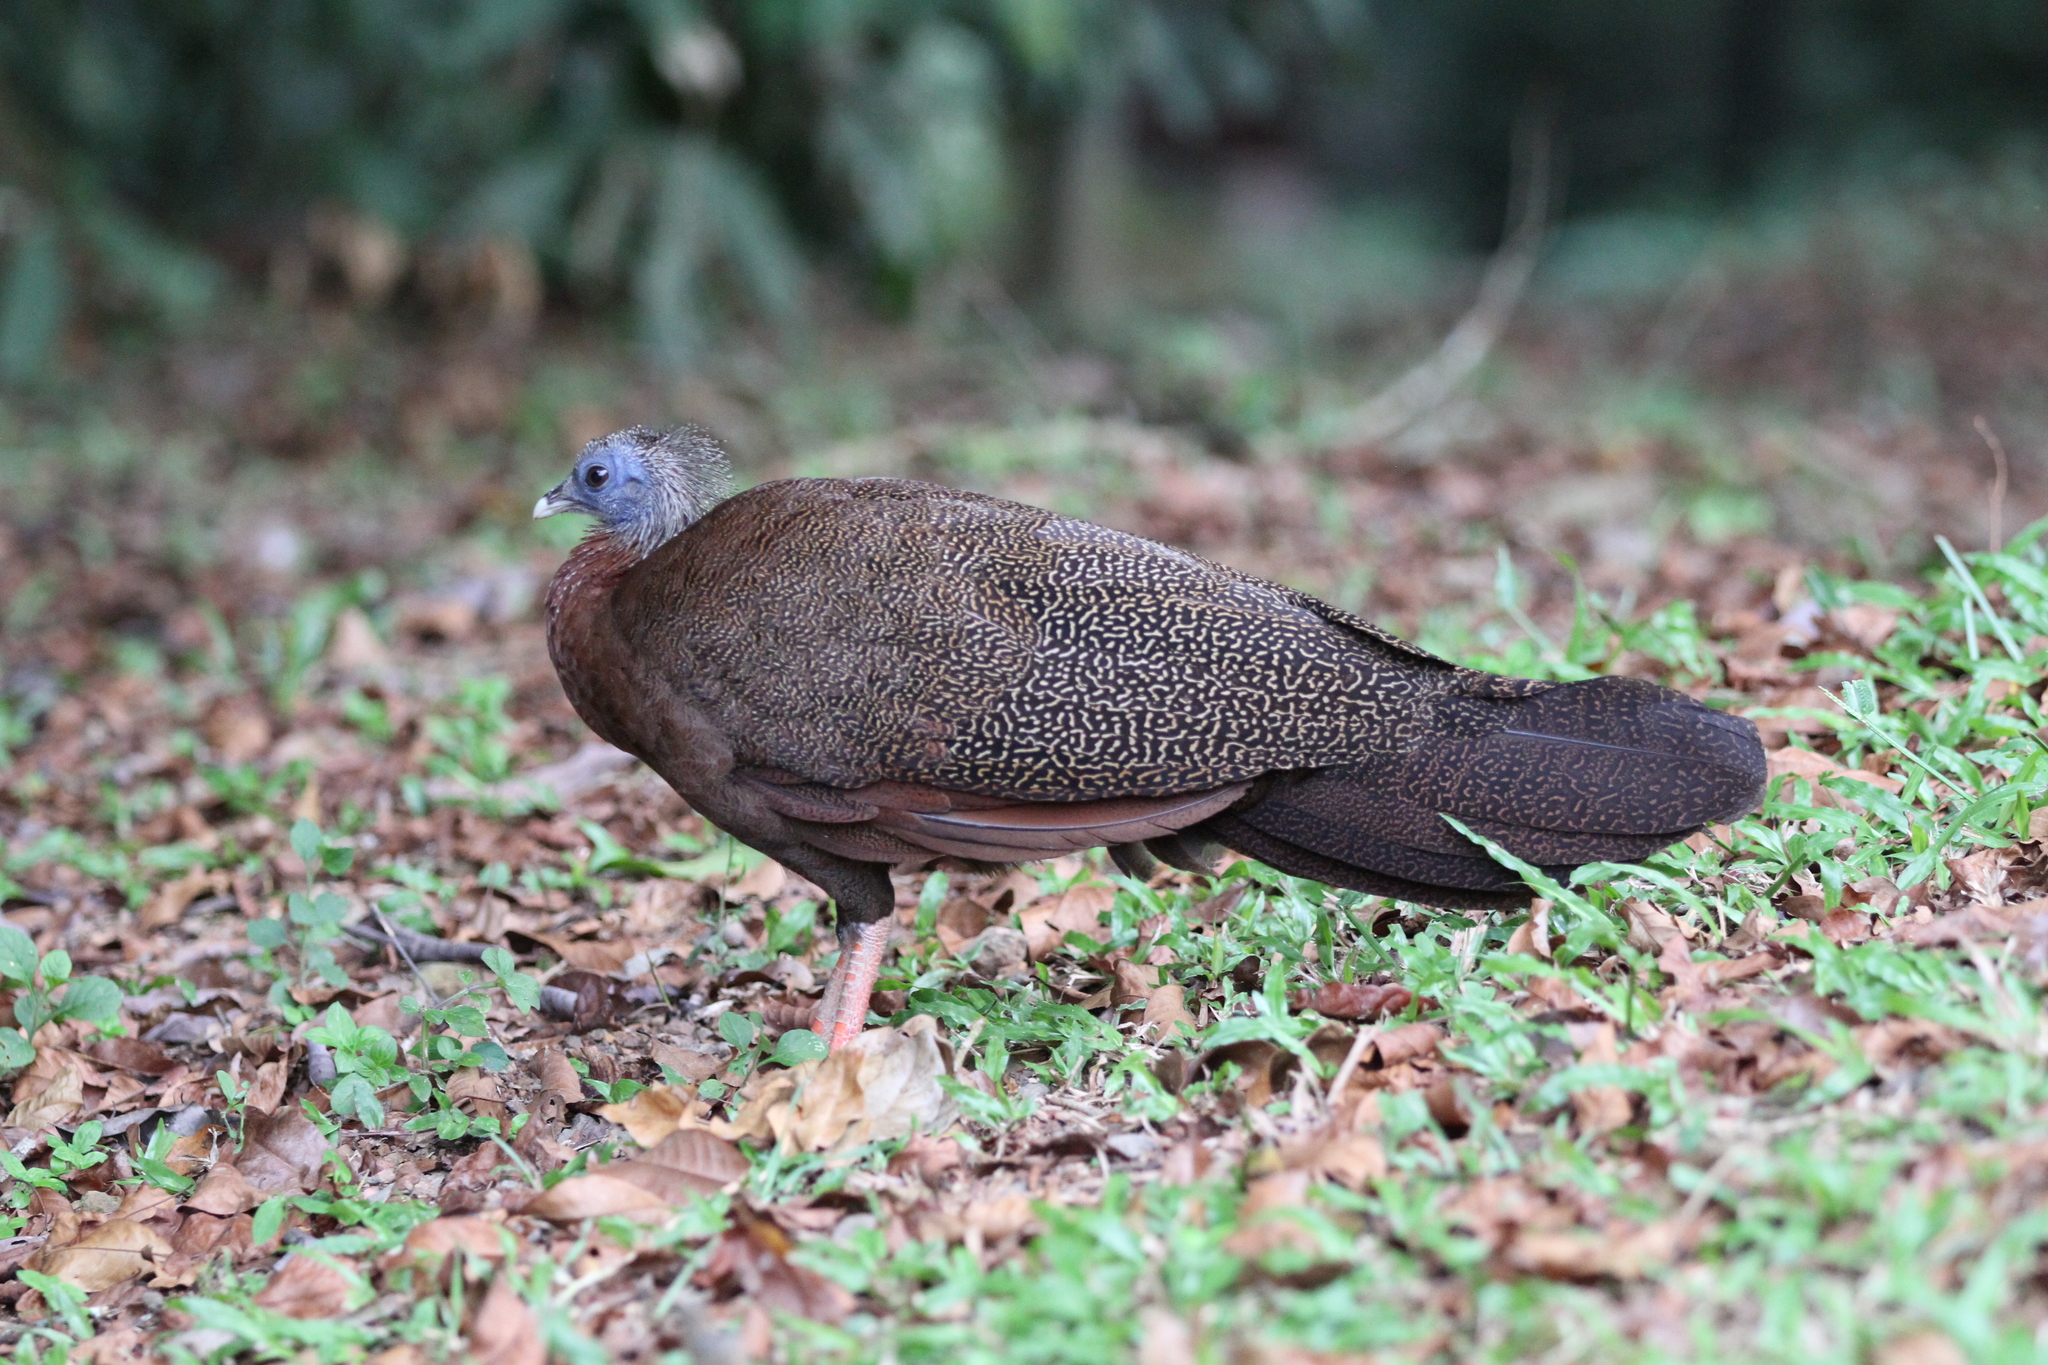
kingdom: Animalia
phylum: Chordata
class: Aves
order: Galliformes
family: Phasianidae
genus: Argusianus
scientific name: Argusianus argus
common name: Great argus
